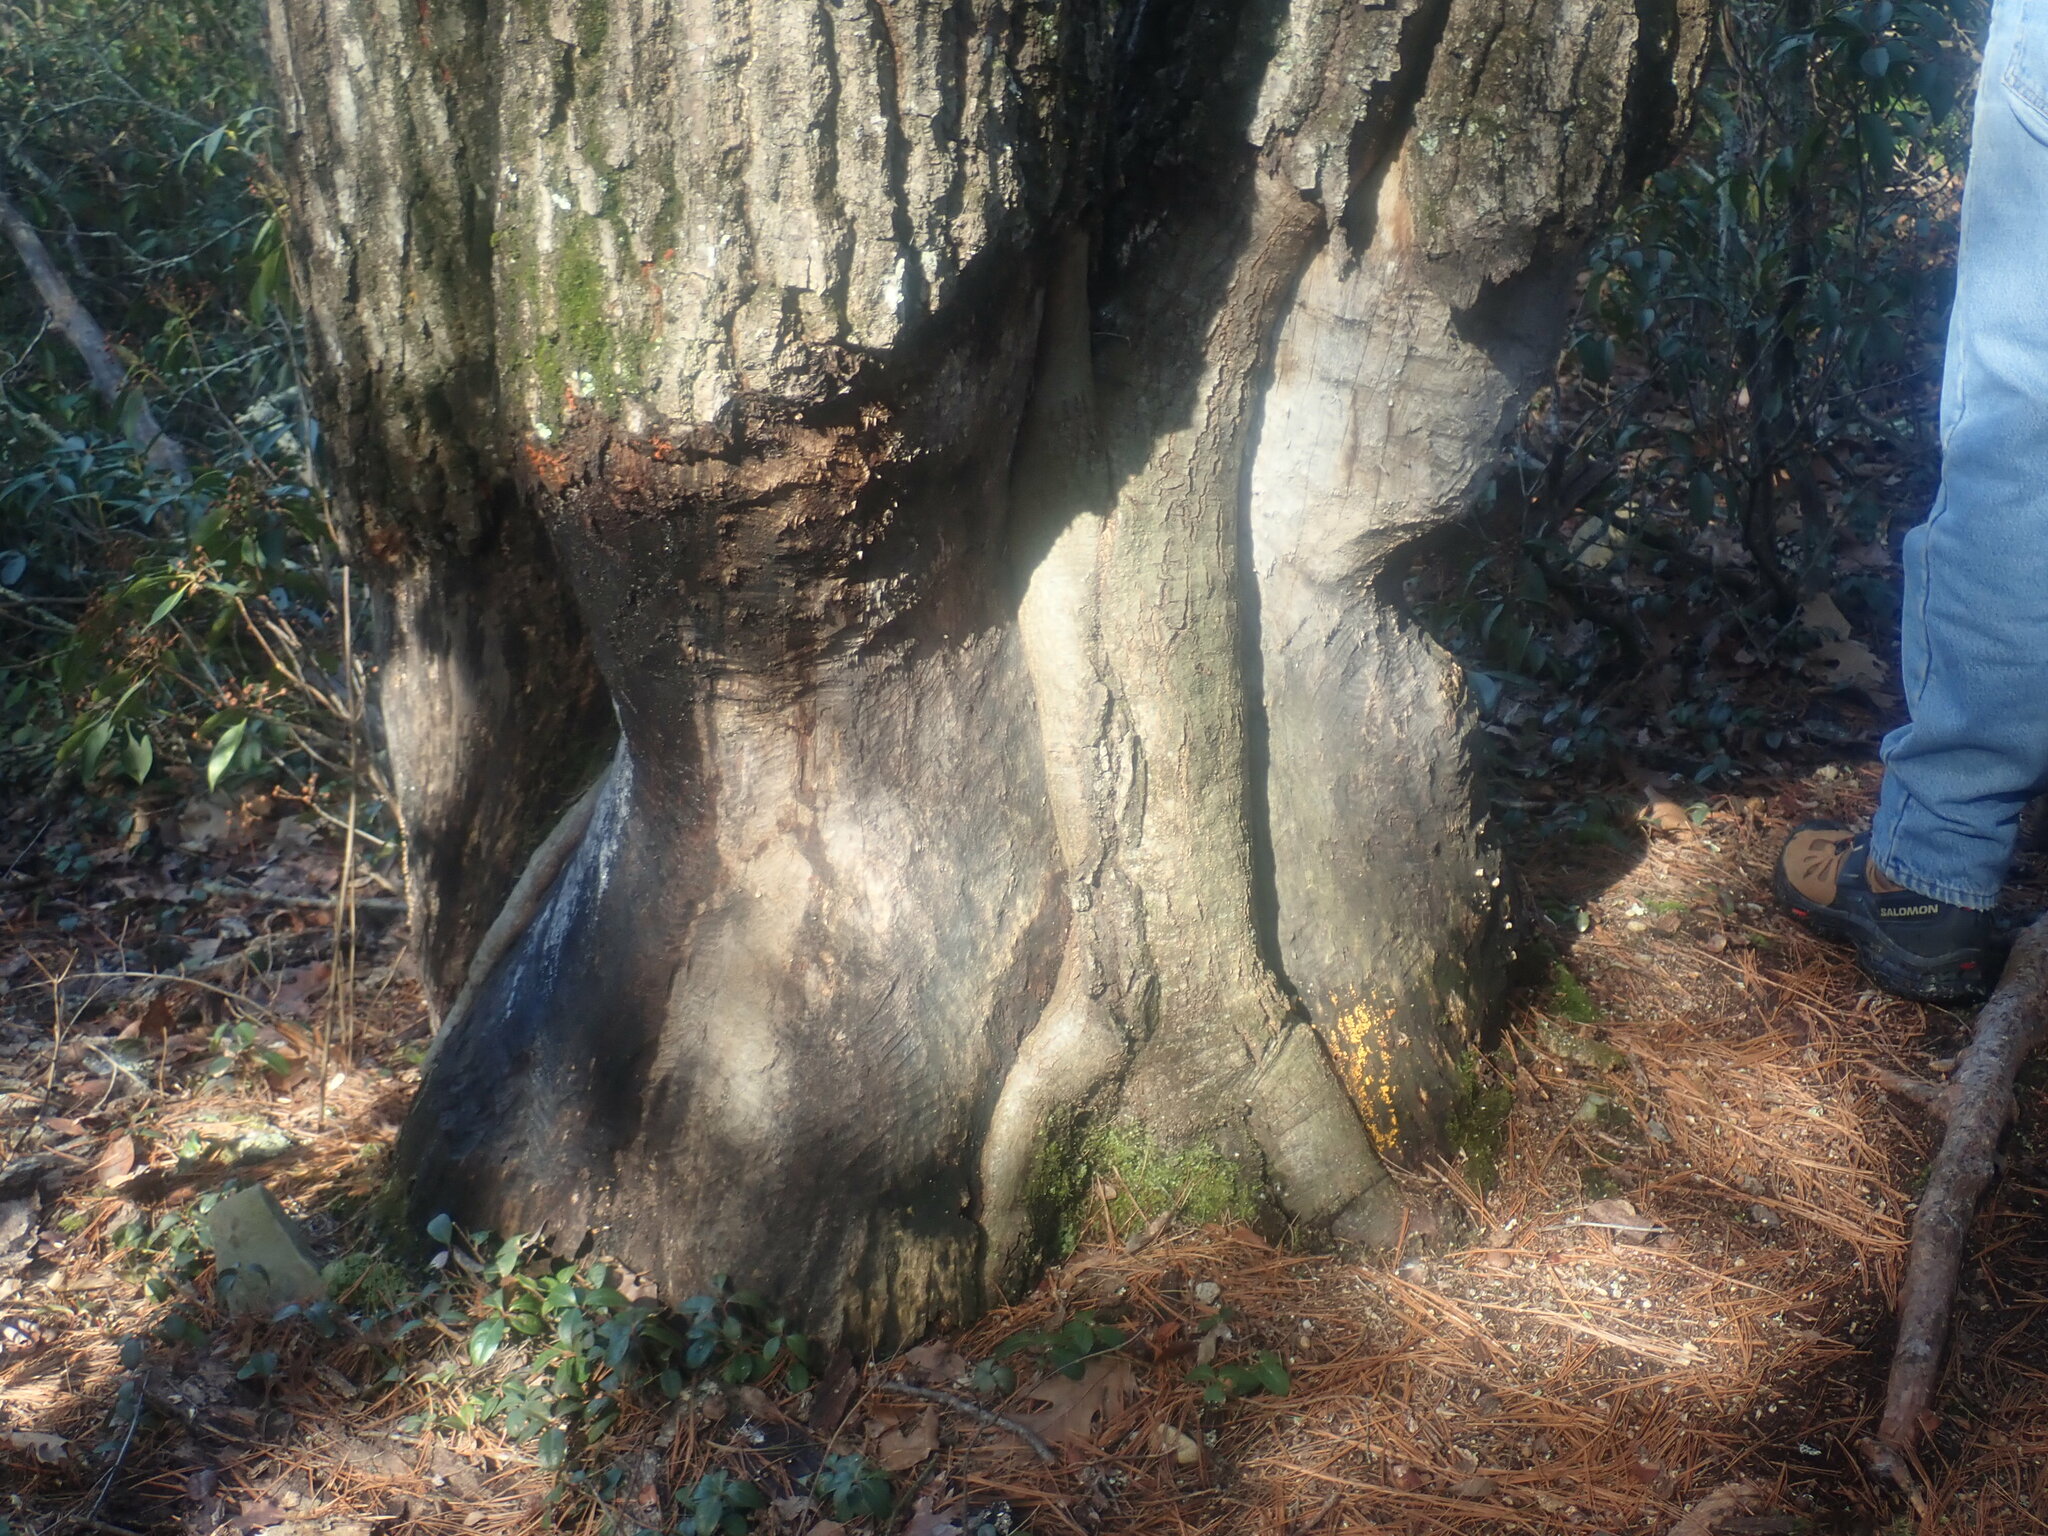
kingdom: Animalia
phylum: Chordata
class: Mammalia
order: Rodentia
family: Castoridae
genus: Castor
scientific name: Castor canadensis
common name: American beaver
